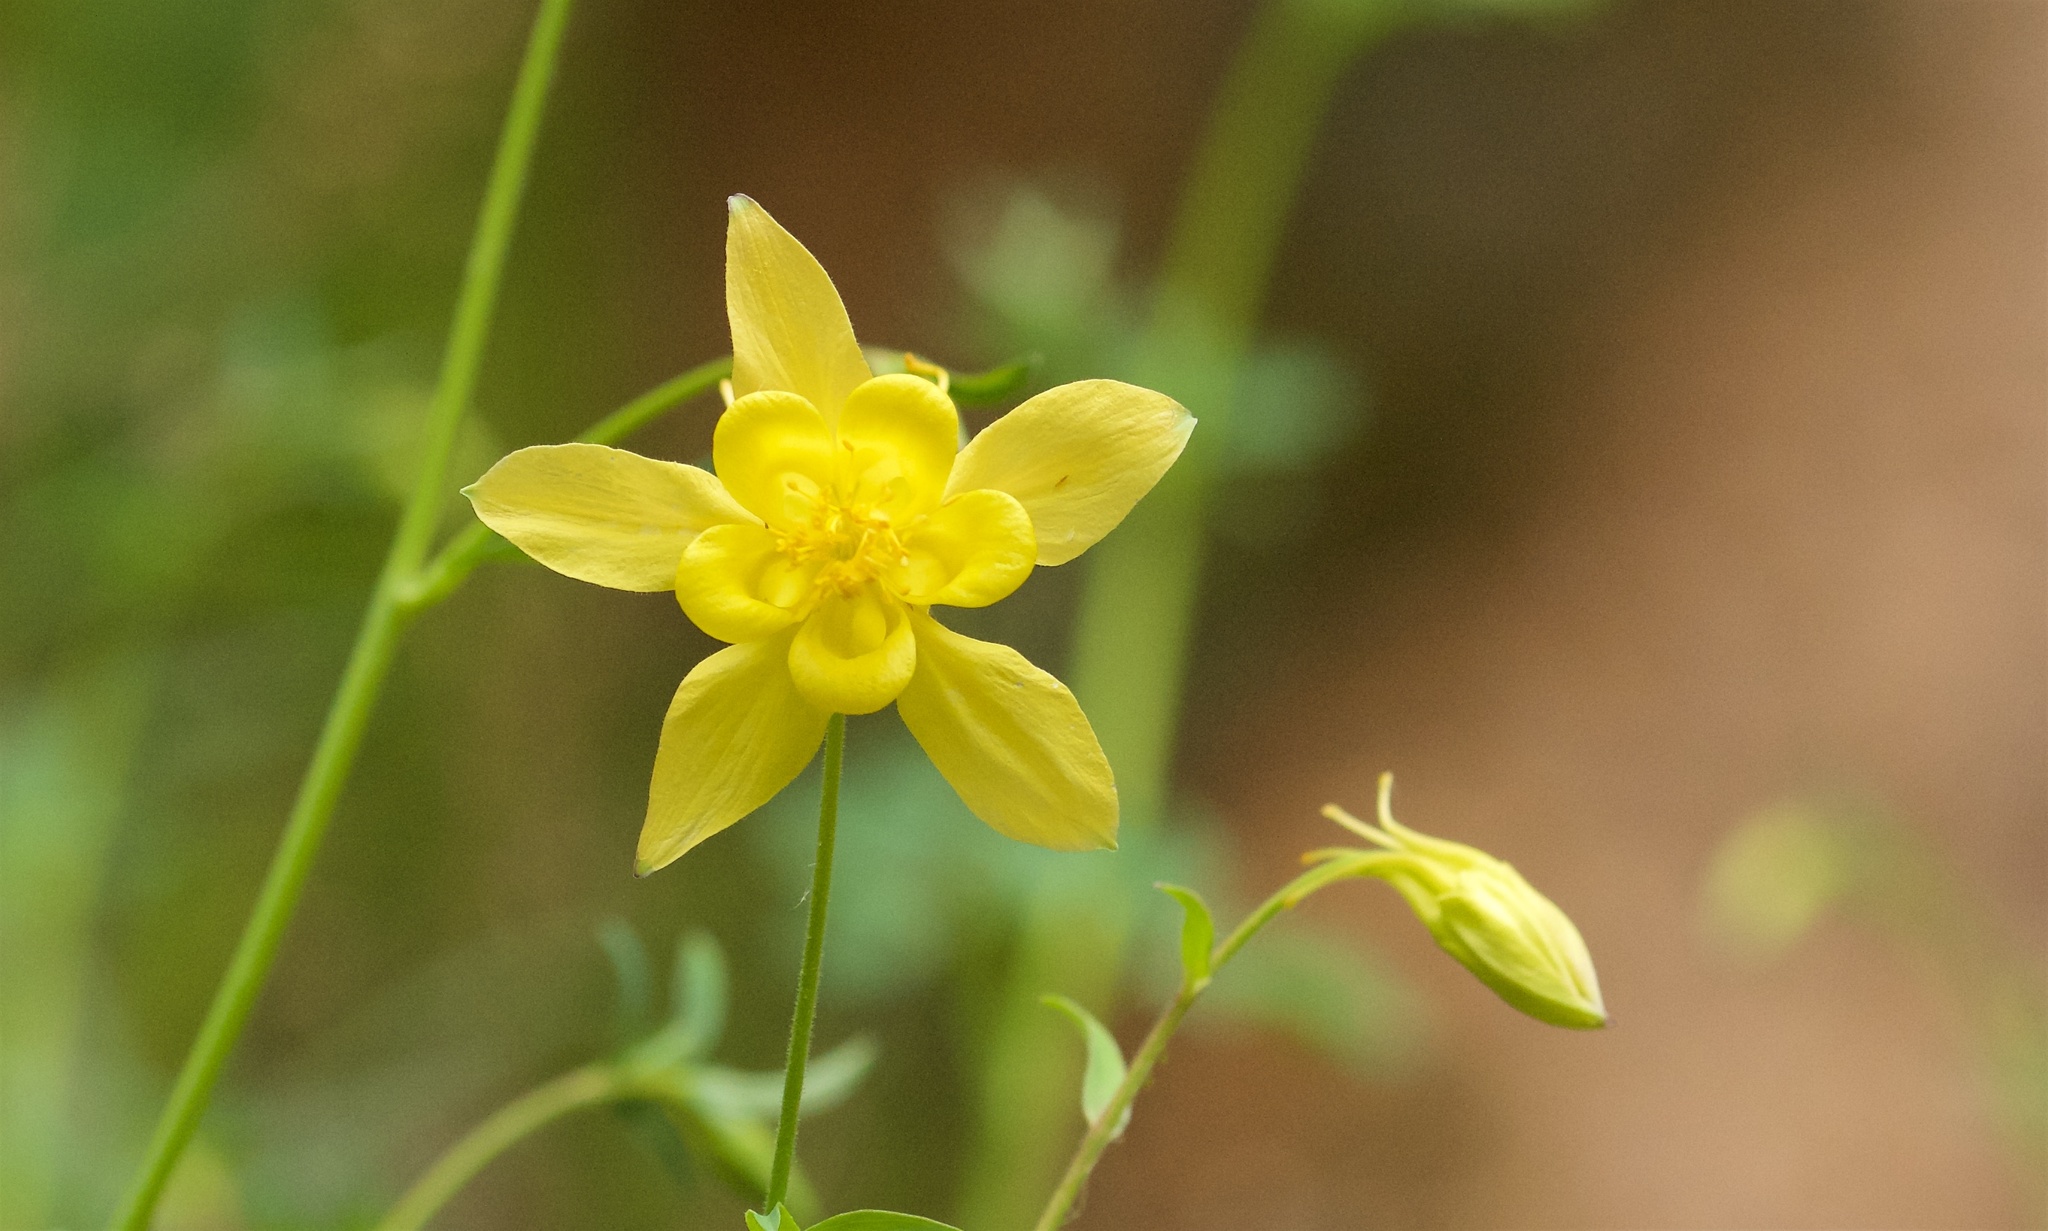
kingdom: Plantae
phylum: Tracheophyta
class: Magnoliopsida
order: Ranunculales
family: Ranunculaceae
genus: Aquilegia
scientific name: Aquilegia chrysantha
